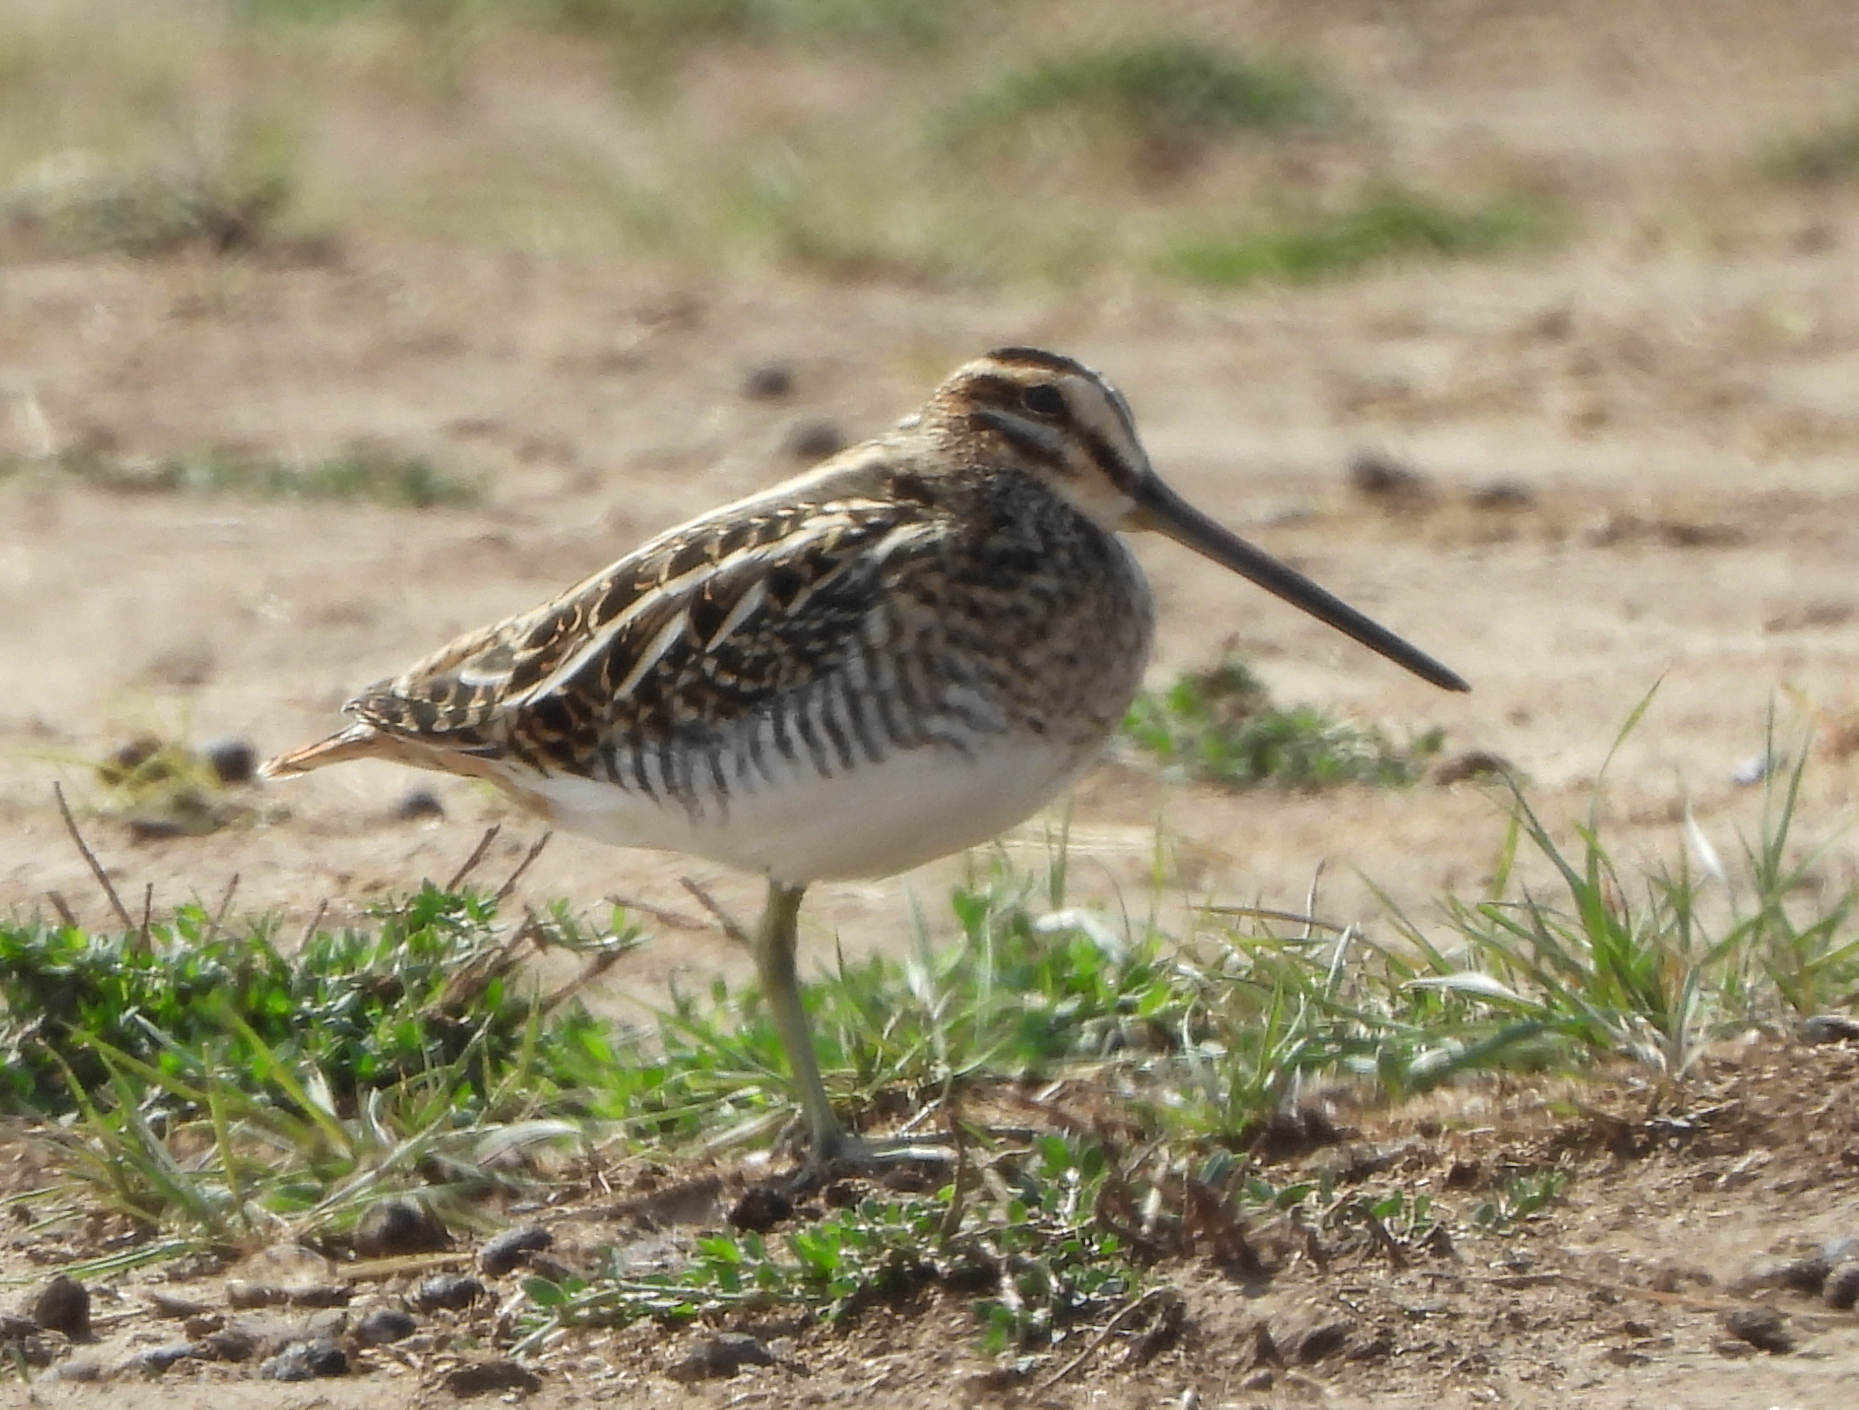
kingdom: Animalia
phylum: Chordata
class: Aves
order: Charadriiformes
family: Scolopacidae
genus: Gallinago
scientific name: Gallinago gallinago
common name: Common snipe
